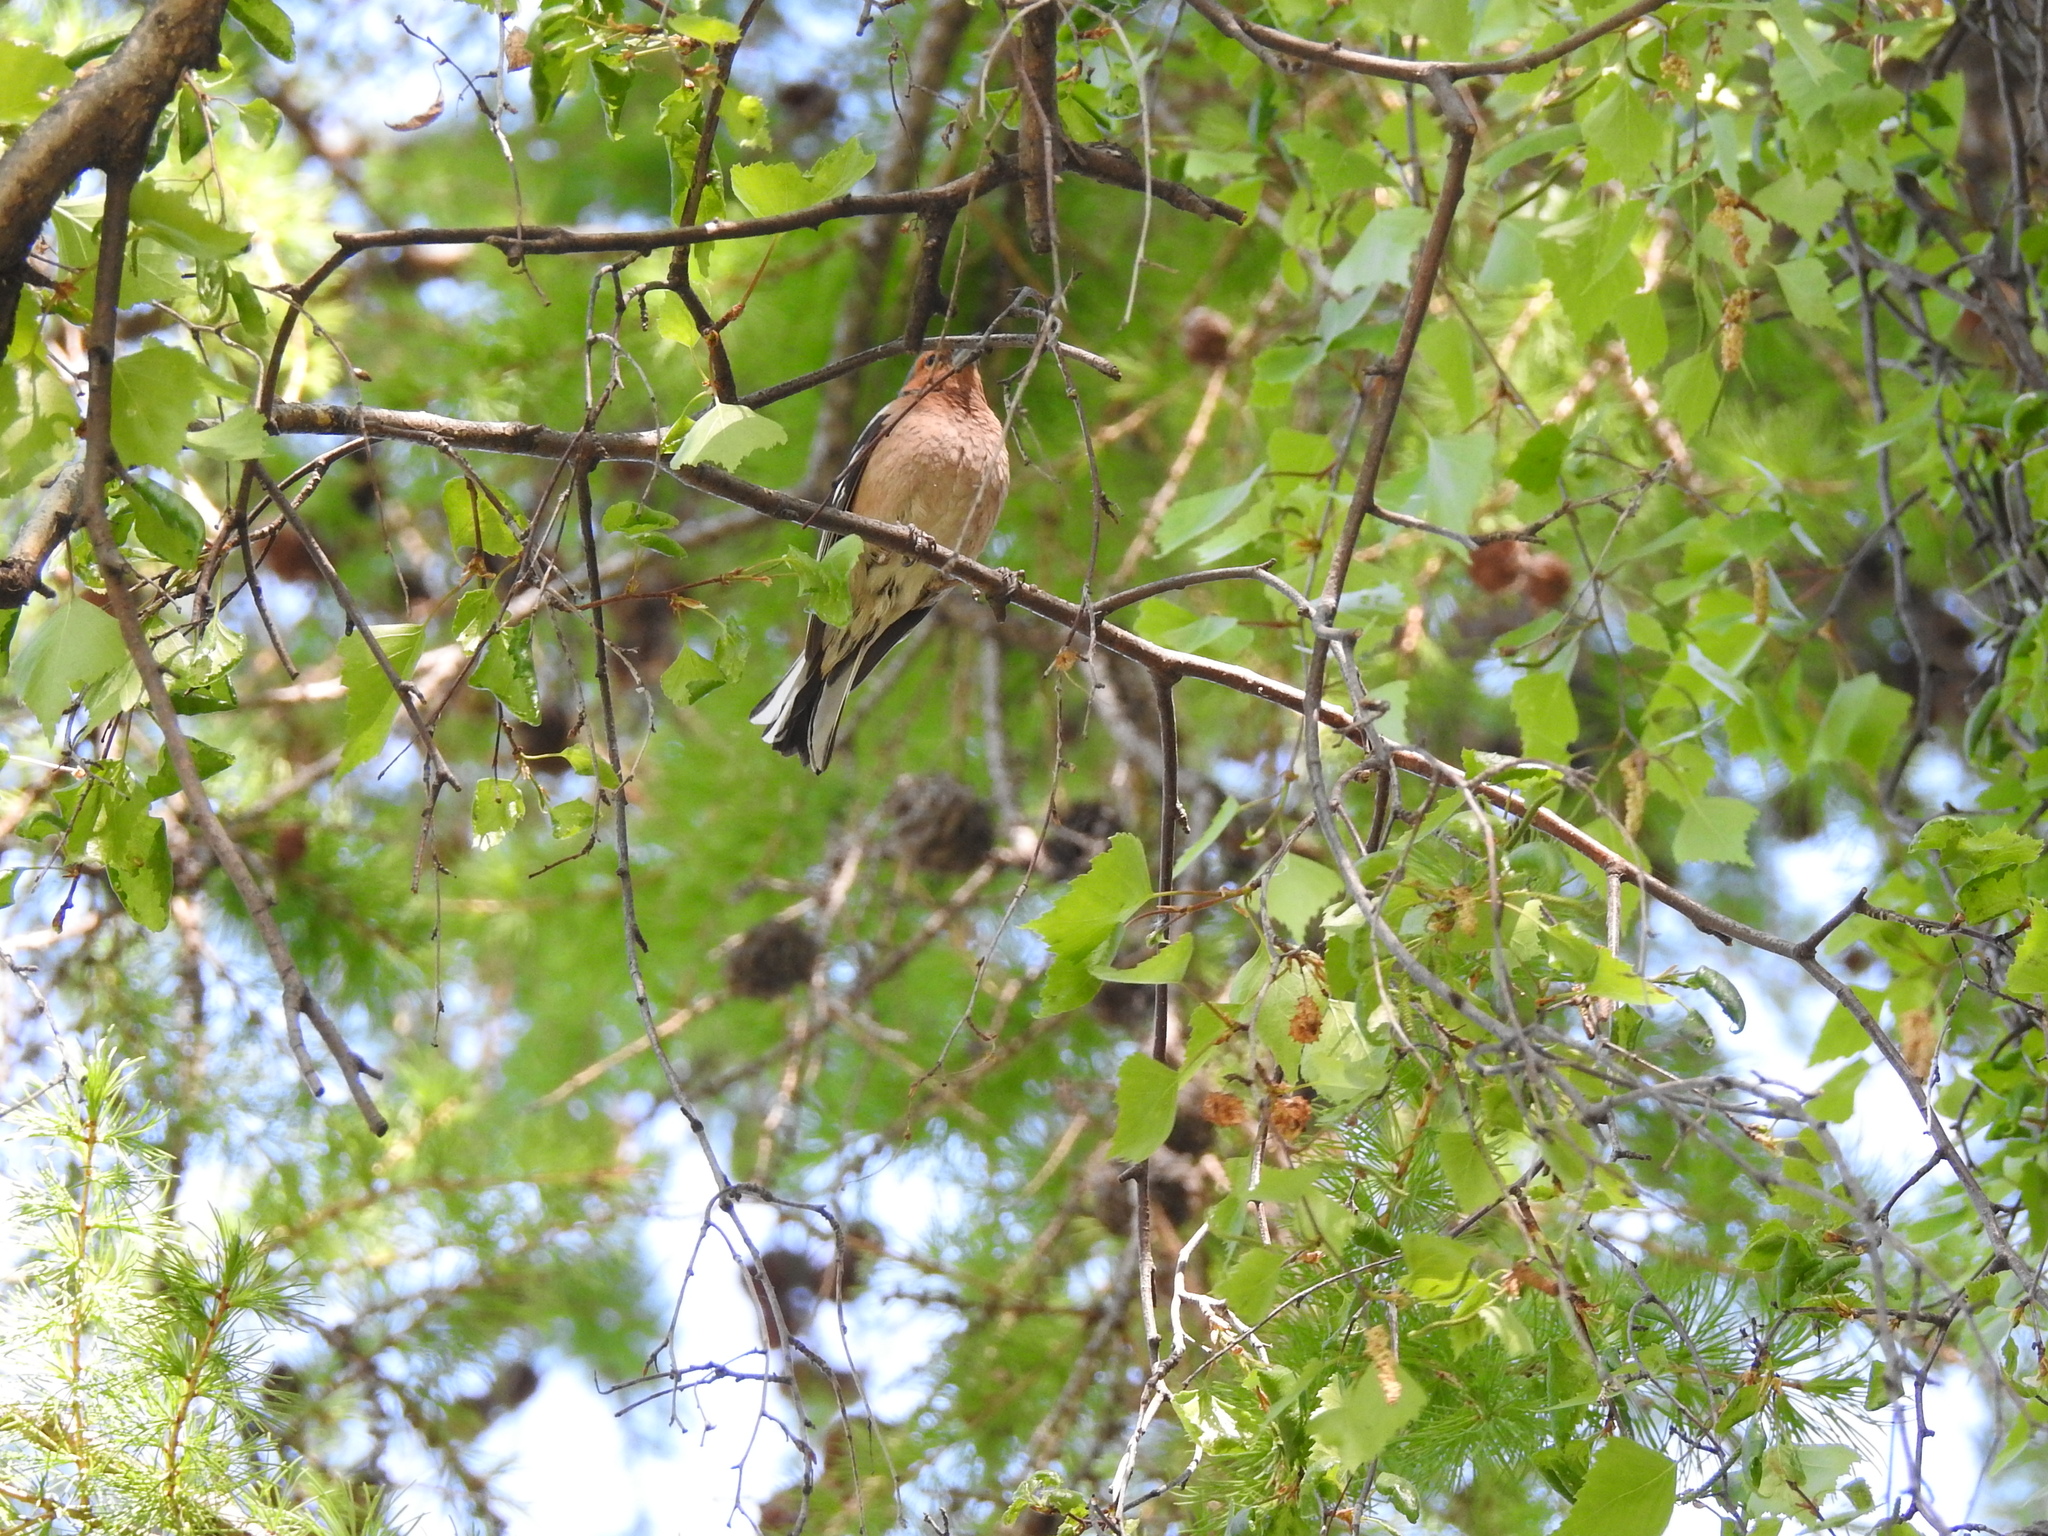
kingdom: Animalia
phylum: Chordata
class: Aves
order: Passeriformes
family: Fringillidae
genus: Fringilla
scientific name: Fringilla coelebs
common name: Common chaffinch
